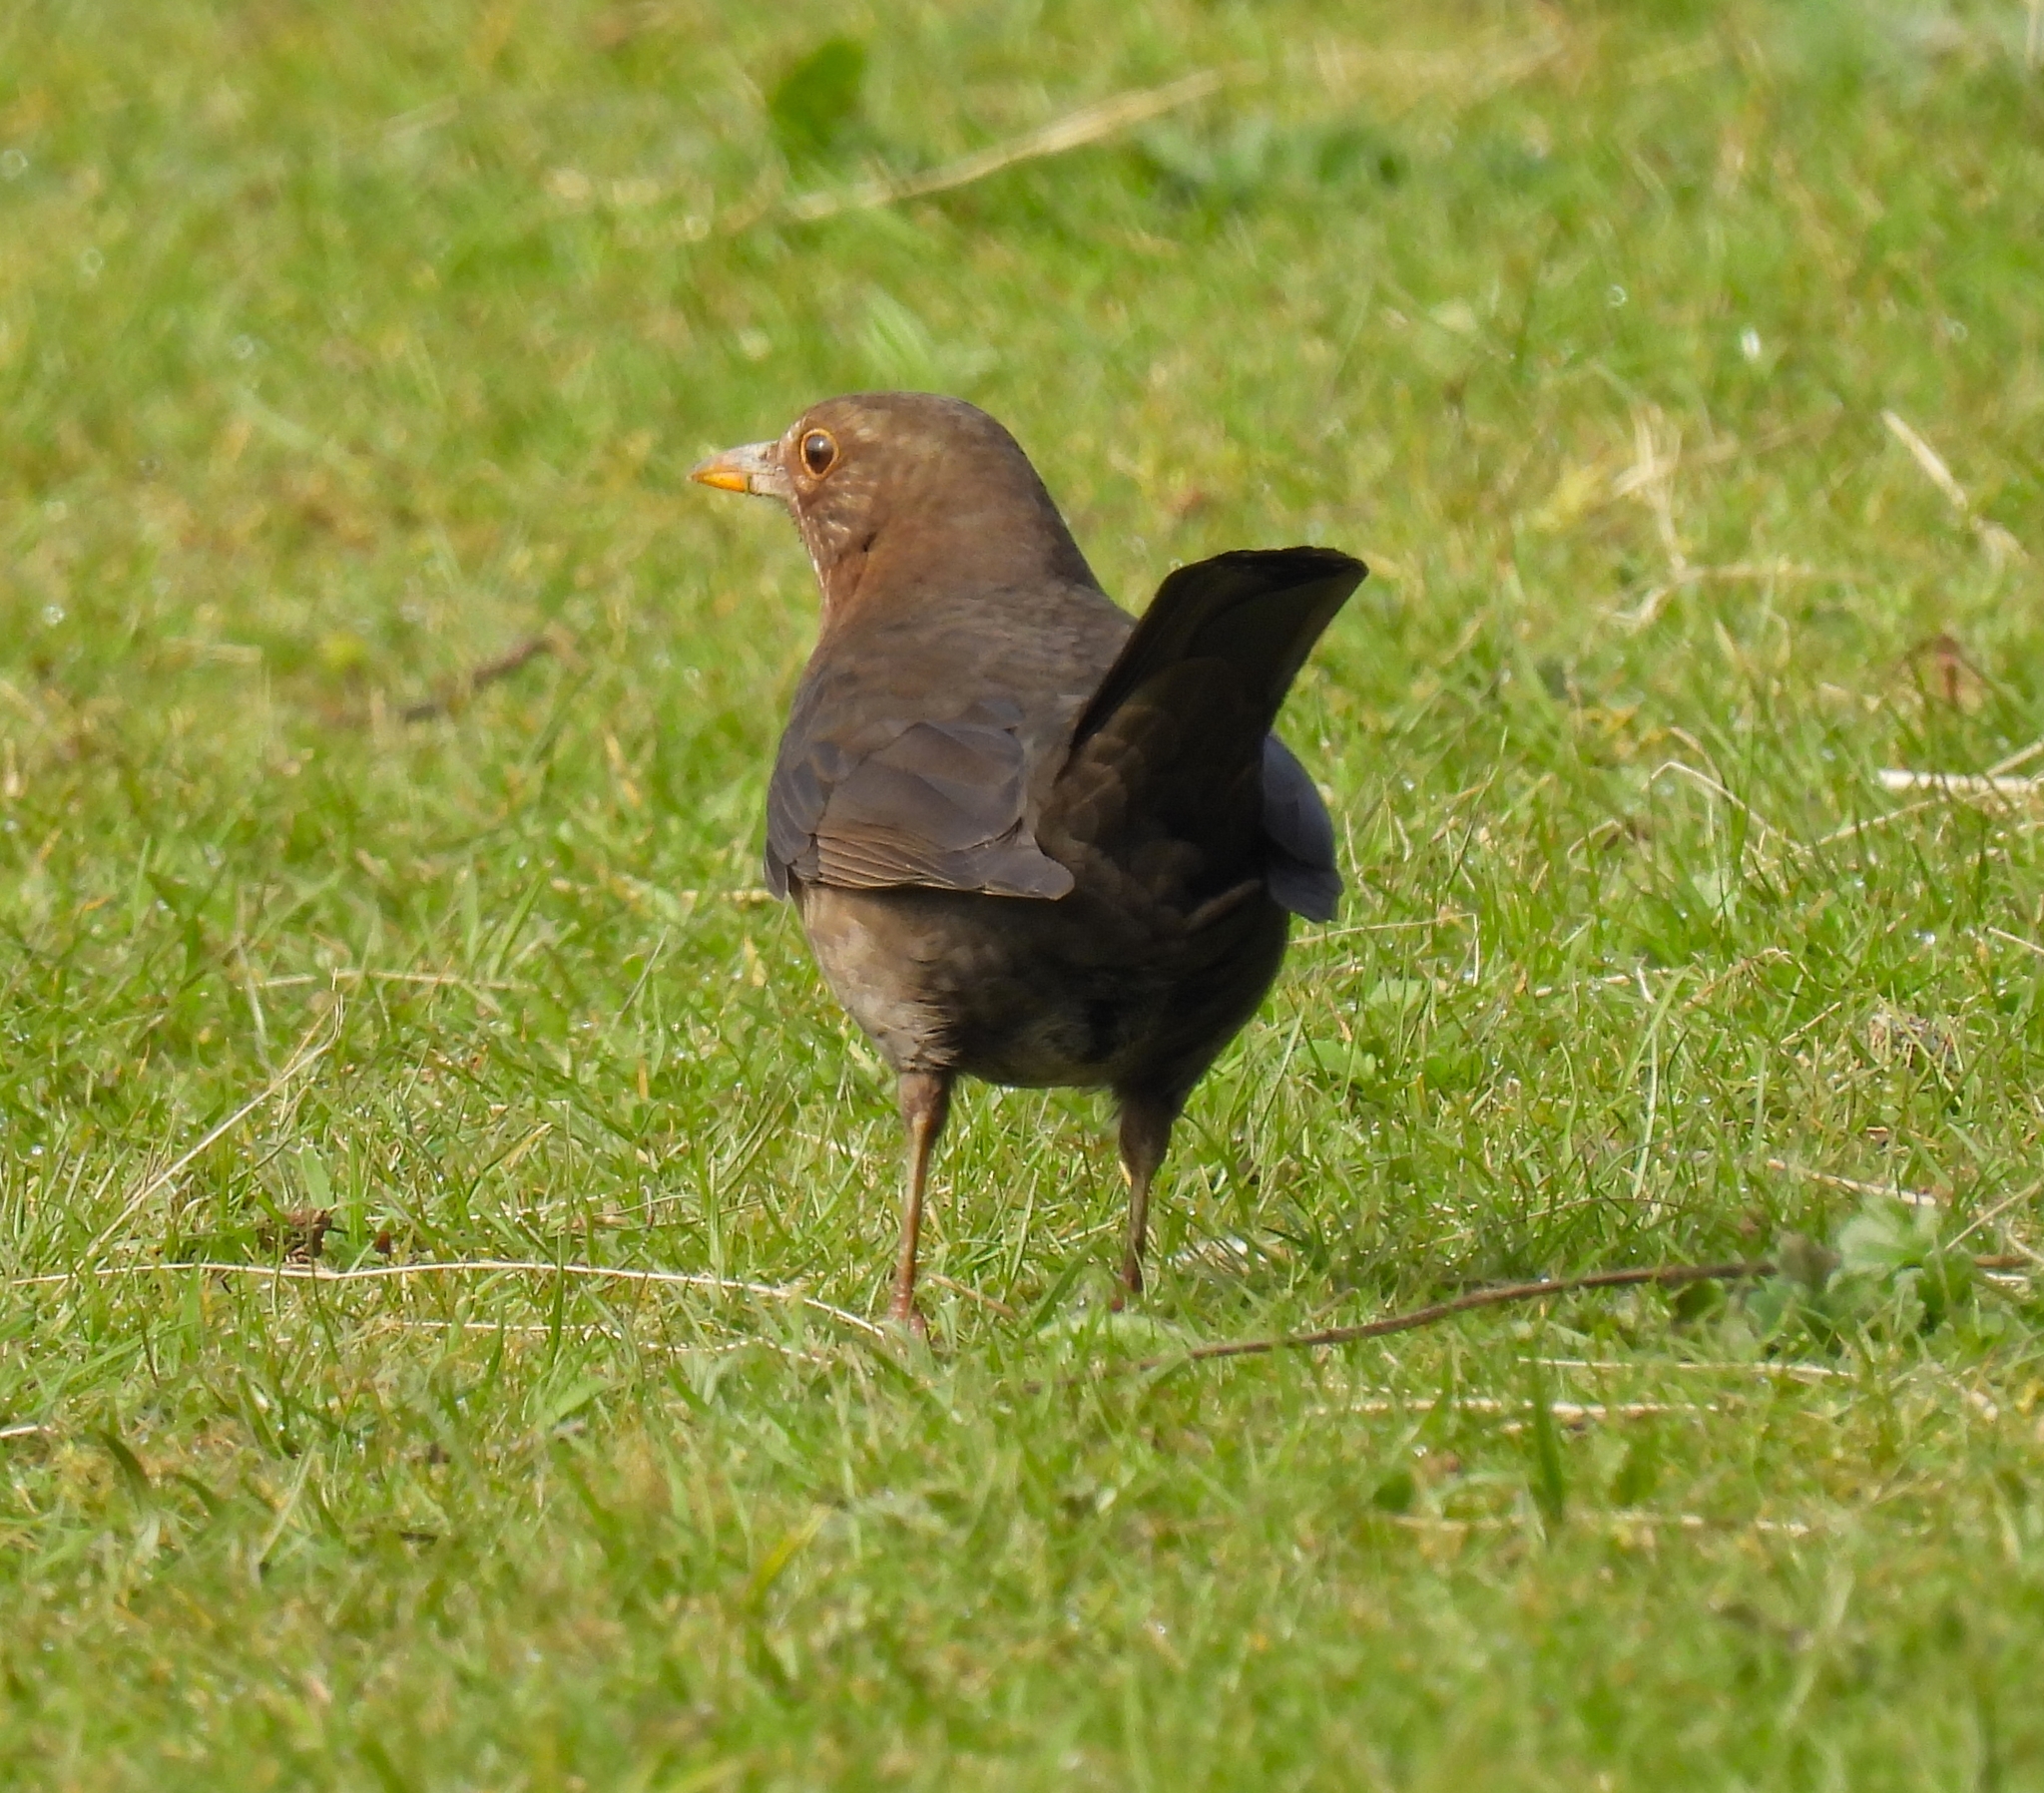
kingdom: Animalia
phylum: Chordata
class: Aves
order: Passeriformes
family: Turdidae
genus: Turdus
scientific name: Turdus merula
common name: Common blackbird
